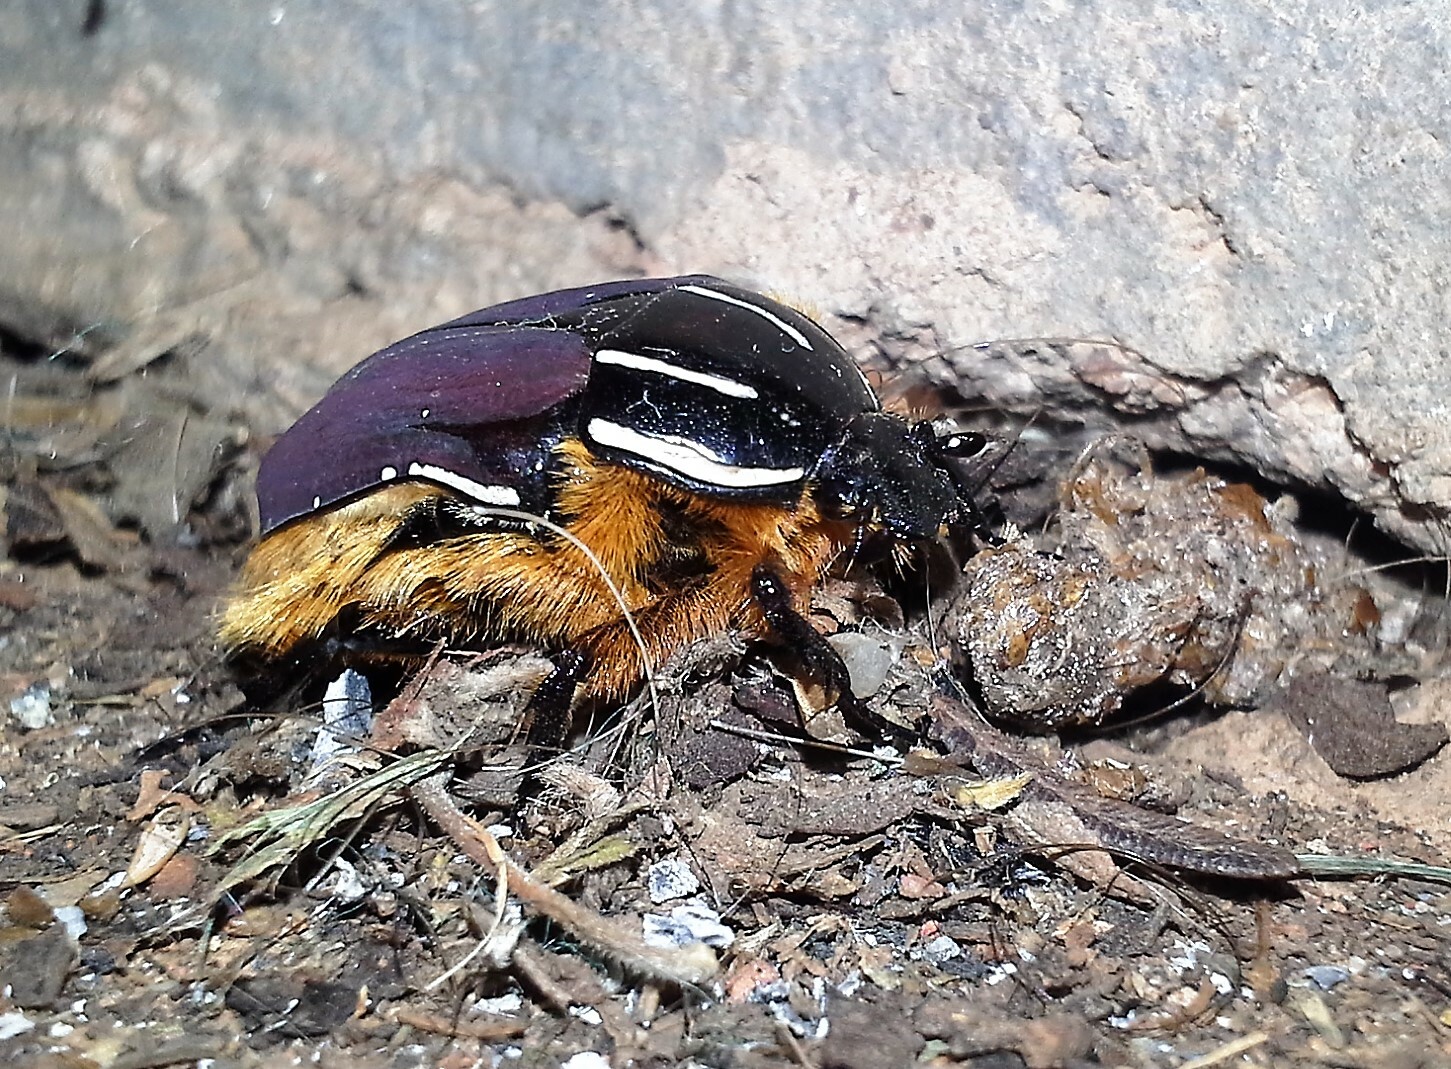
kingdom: Animalia
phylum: Arthropoda
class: Insecta
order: Coleoptera
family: Scarabaeidae
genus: Trichostetha
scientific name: Trichostetha fascicularis
